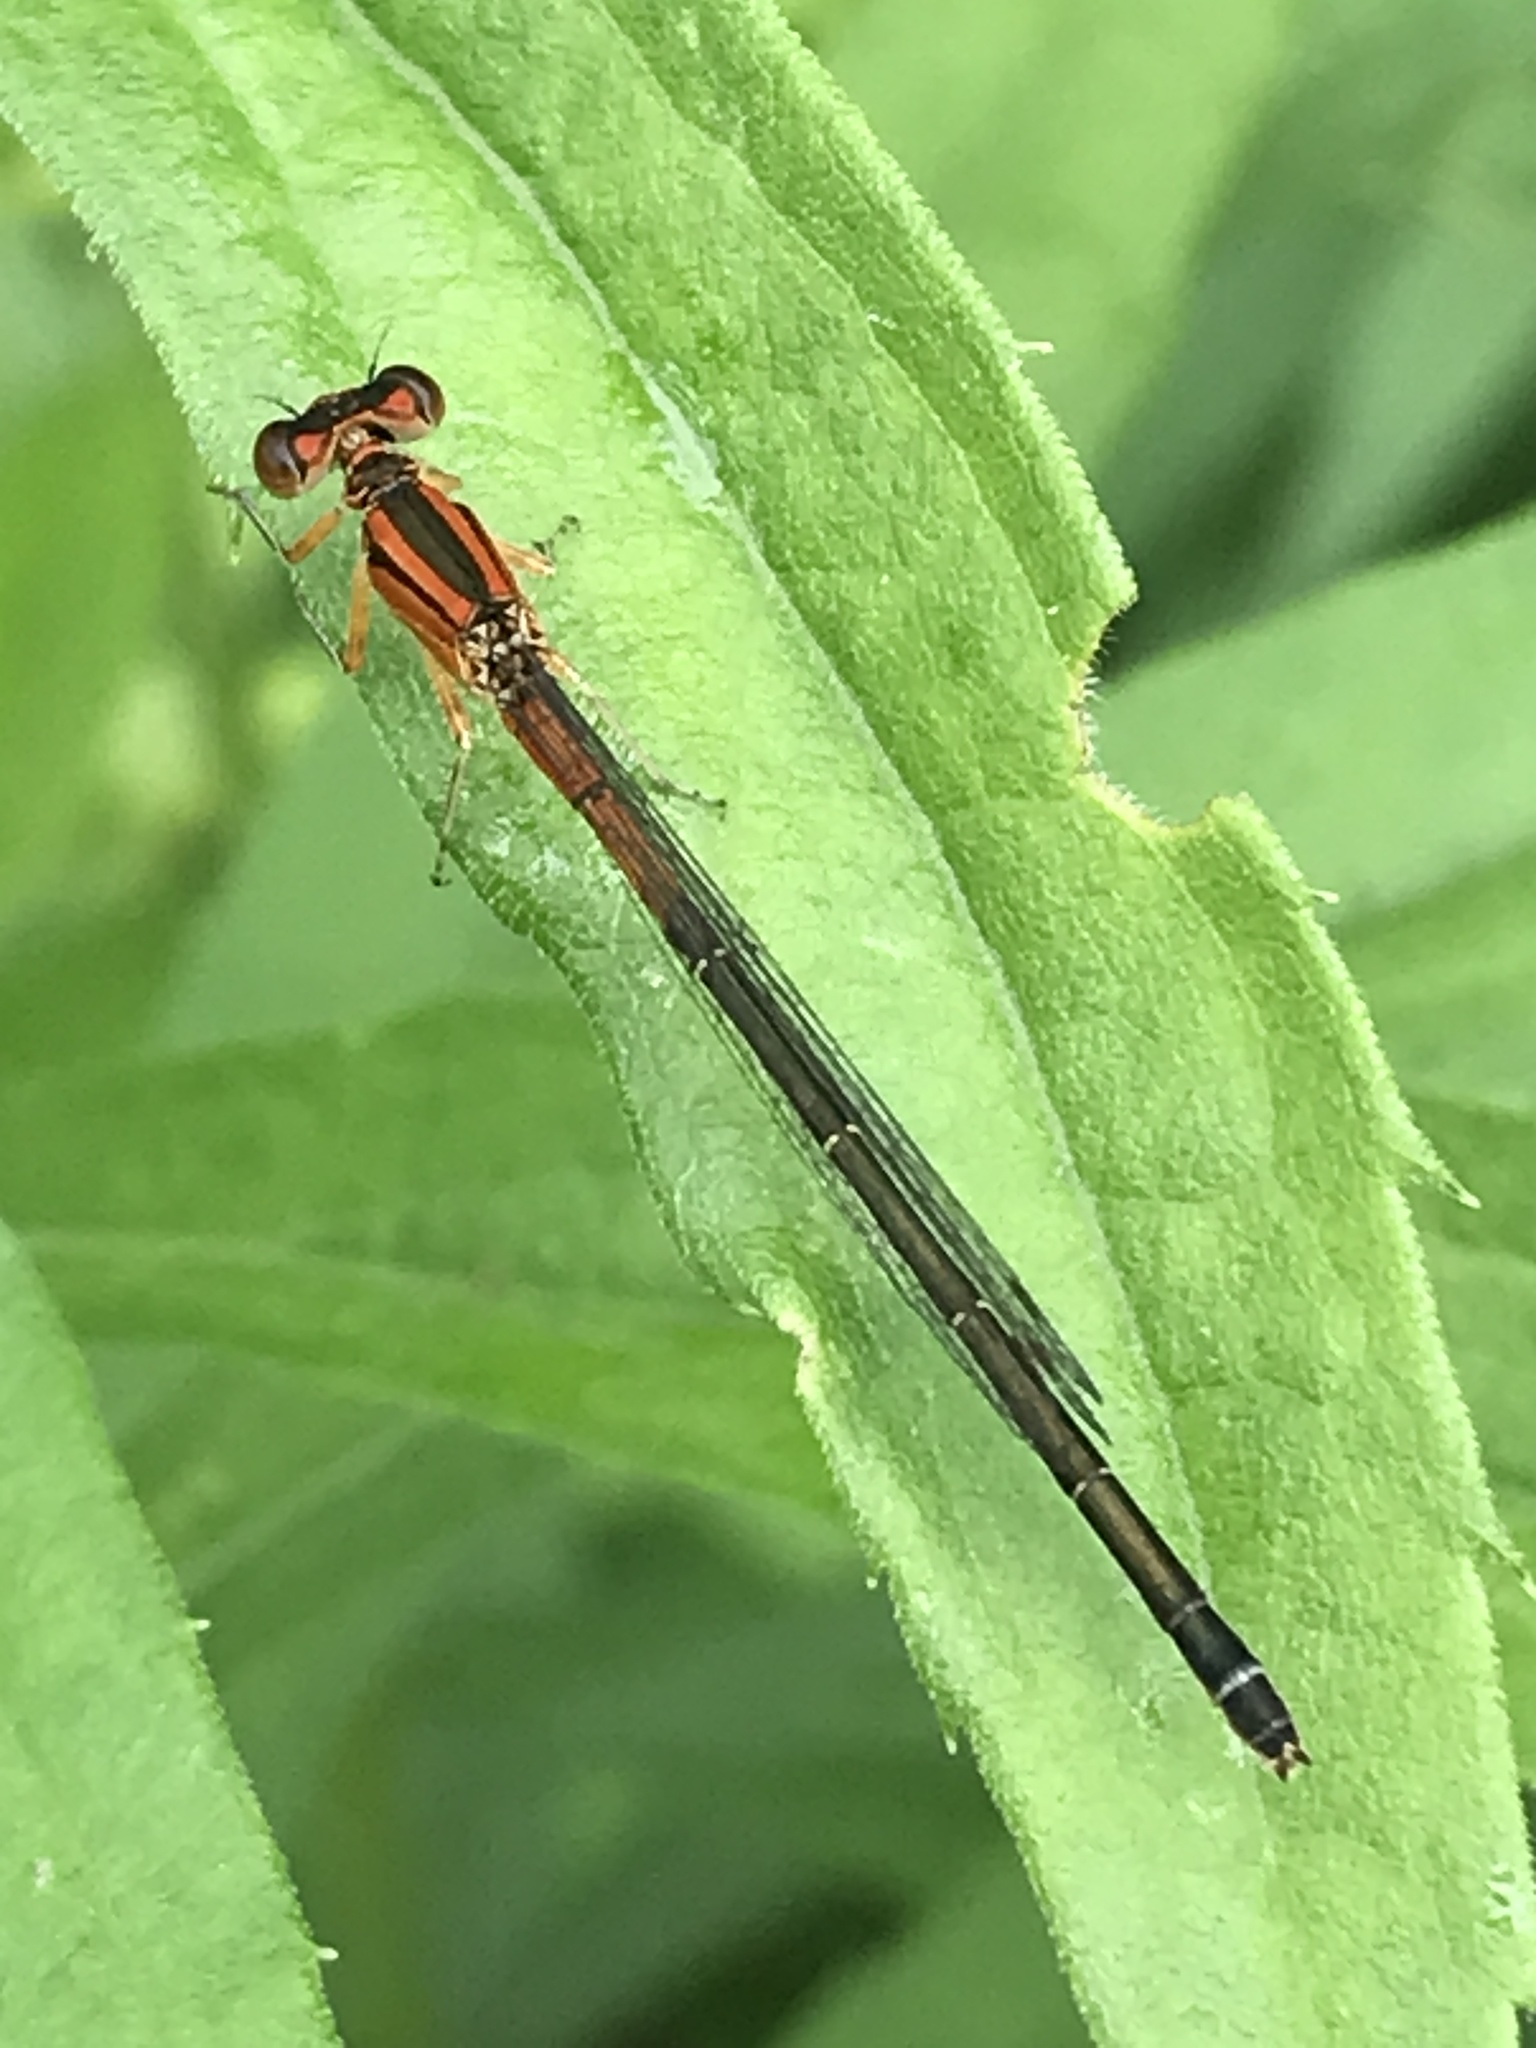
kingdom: Animalia
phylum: Arthropoda
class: Insecta
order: Odonata
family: Coenagrionidae
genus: Ischnura
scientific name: Ischnura verticalis
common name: Eastern forktail
